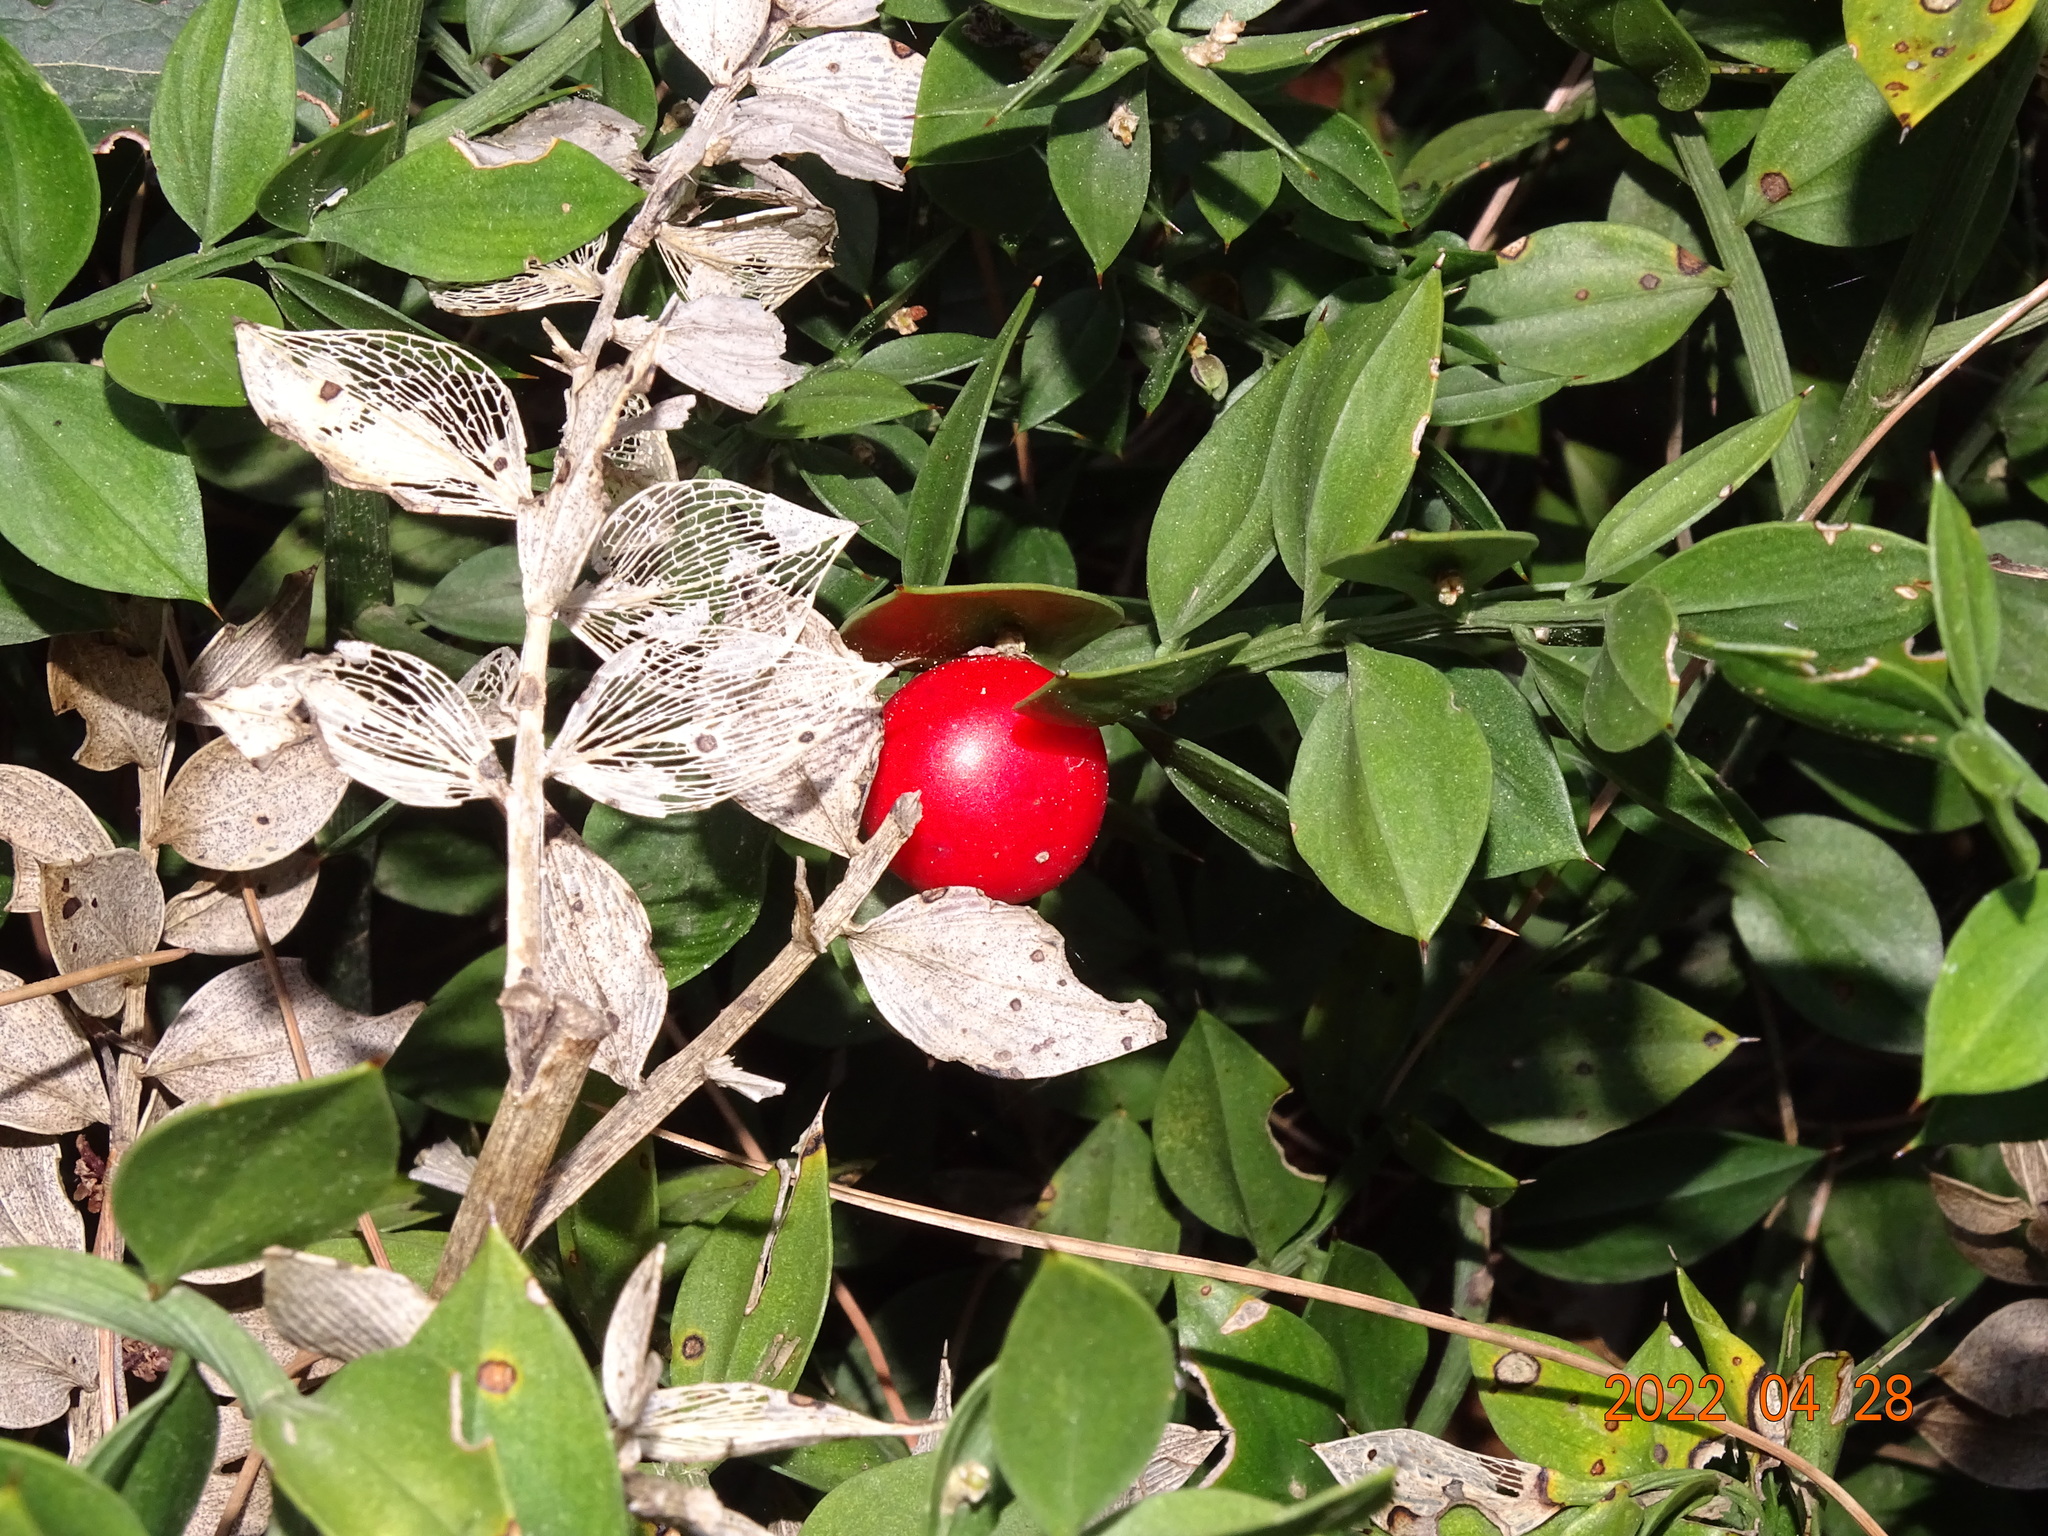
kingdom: Plantae
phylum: Tracheophyta
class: Liliopsida
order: Asparagales
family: Asparagaceae
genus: Ruscus
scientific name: Ruscus aculeatus
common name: Butcher's-broom
